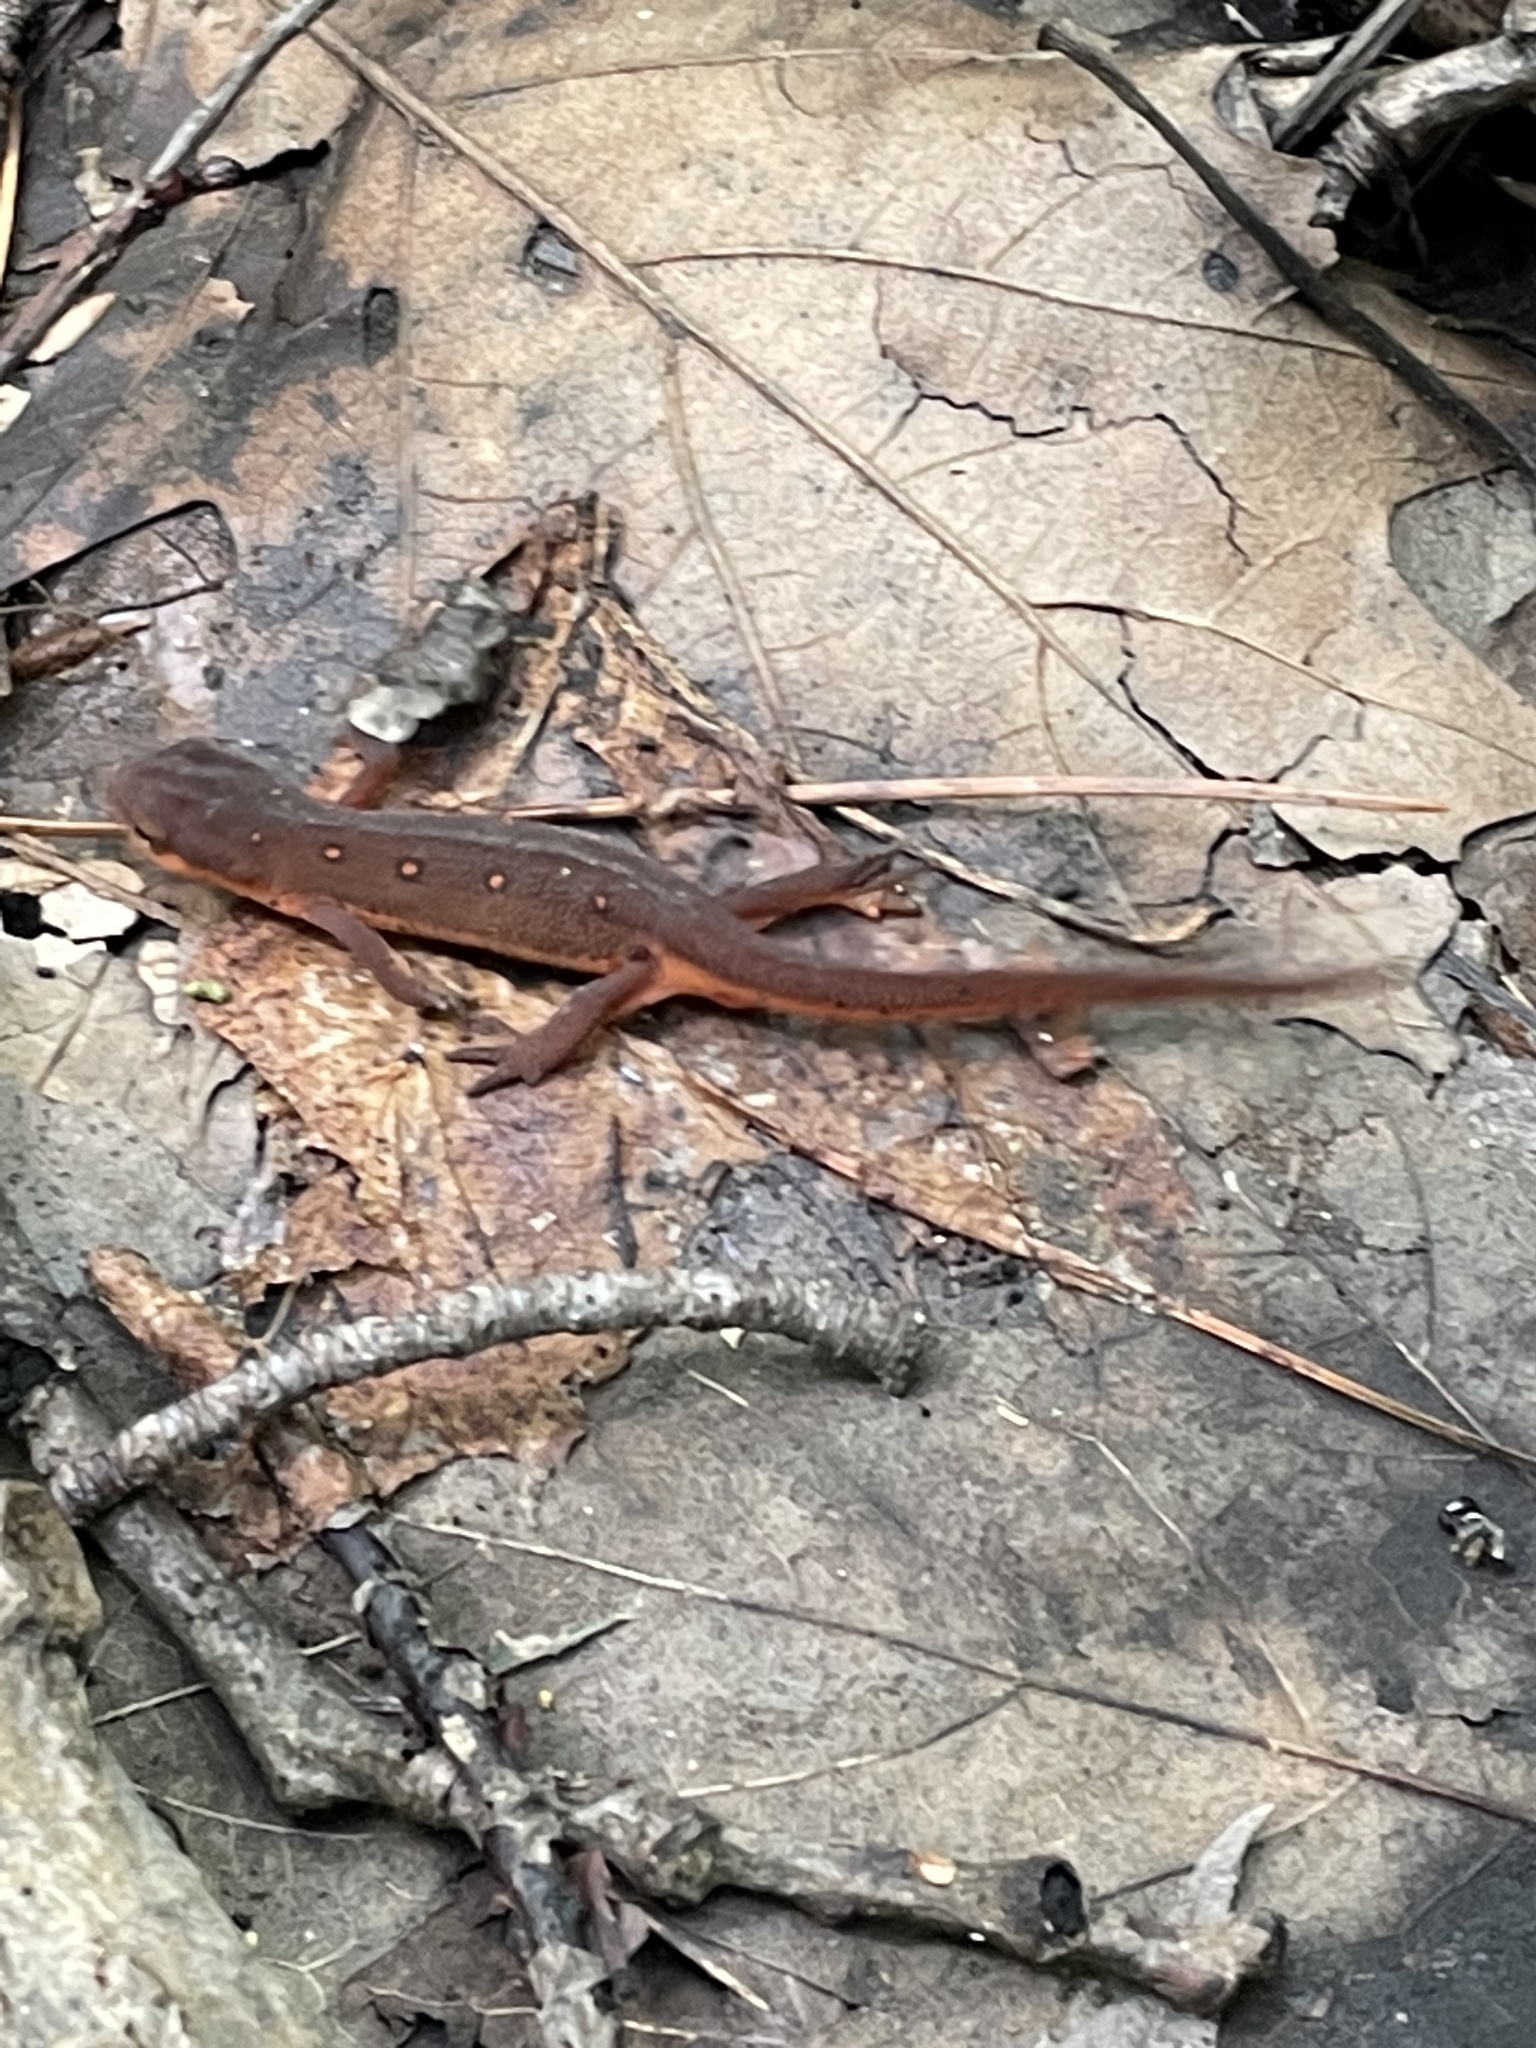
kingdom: Animalia
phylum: Chordata
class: Amphibia
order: Caudata
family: Salamandridae
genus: Notophthalmus
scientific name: Notophthalmus viridescens
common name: Eastern newt
